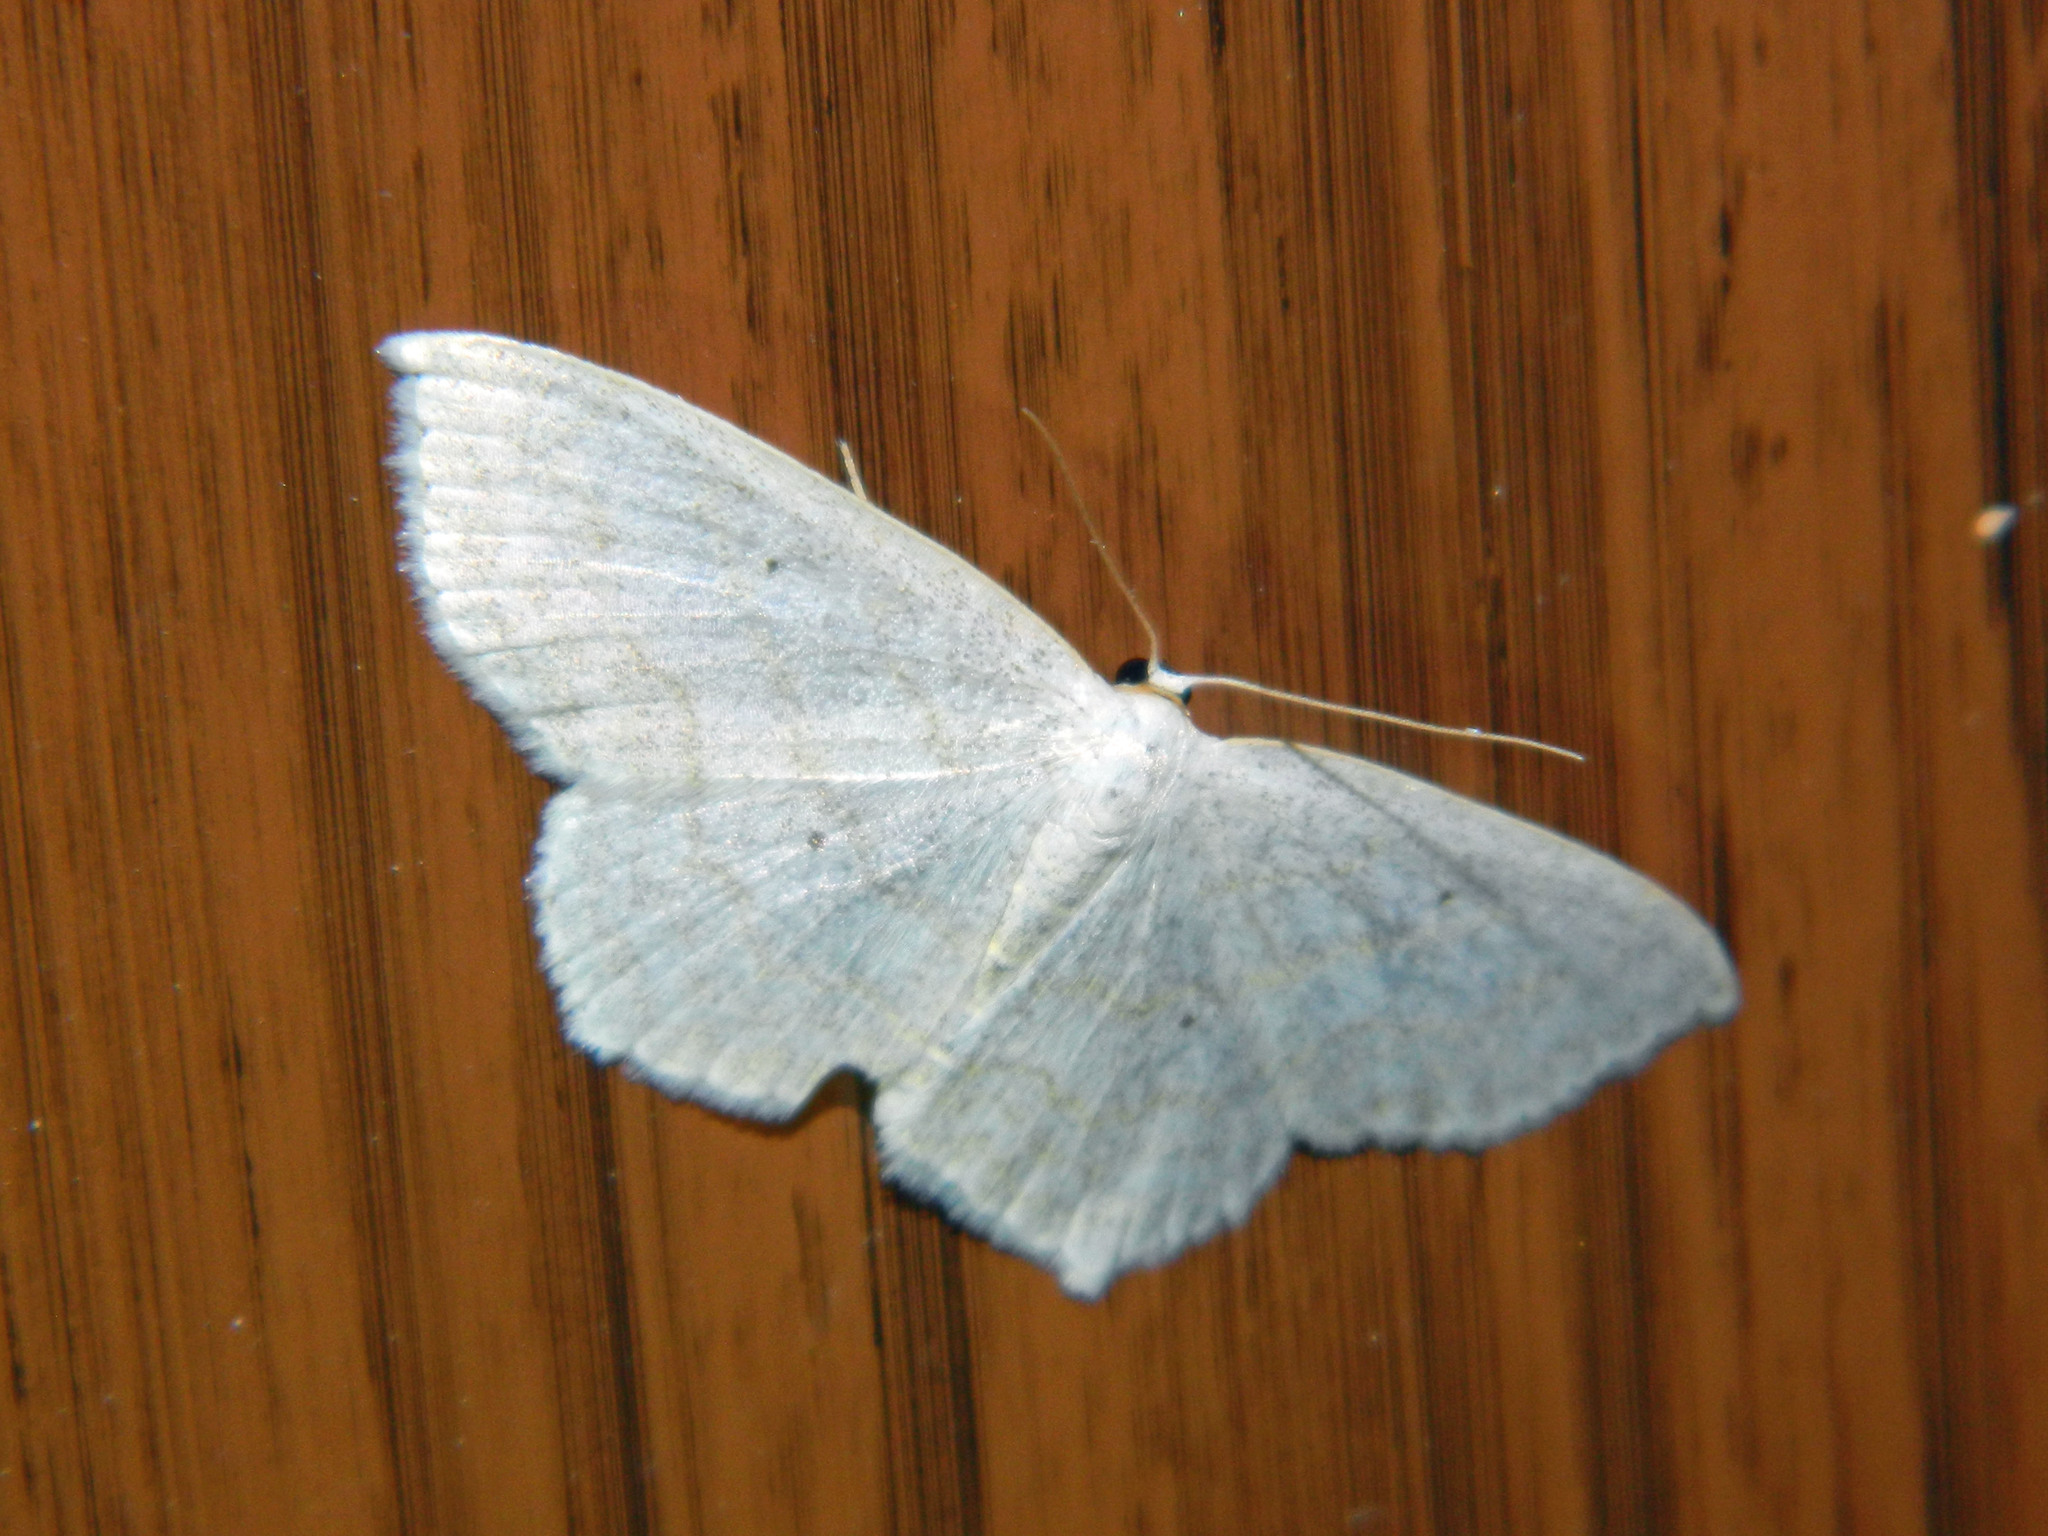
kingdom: Animalia
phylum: Arthropoda
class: Insecta
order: Lepidoptera
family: Geometridae
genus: Scopula
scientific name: Scopula limboundata
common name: Large lace border
